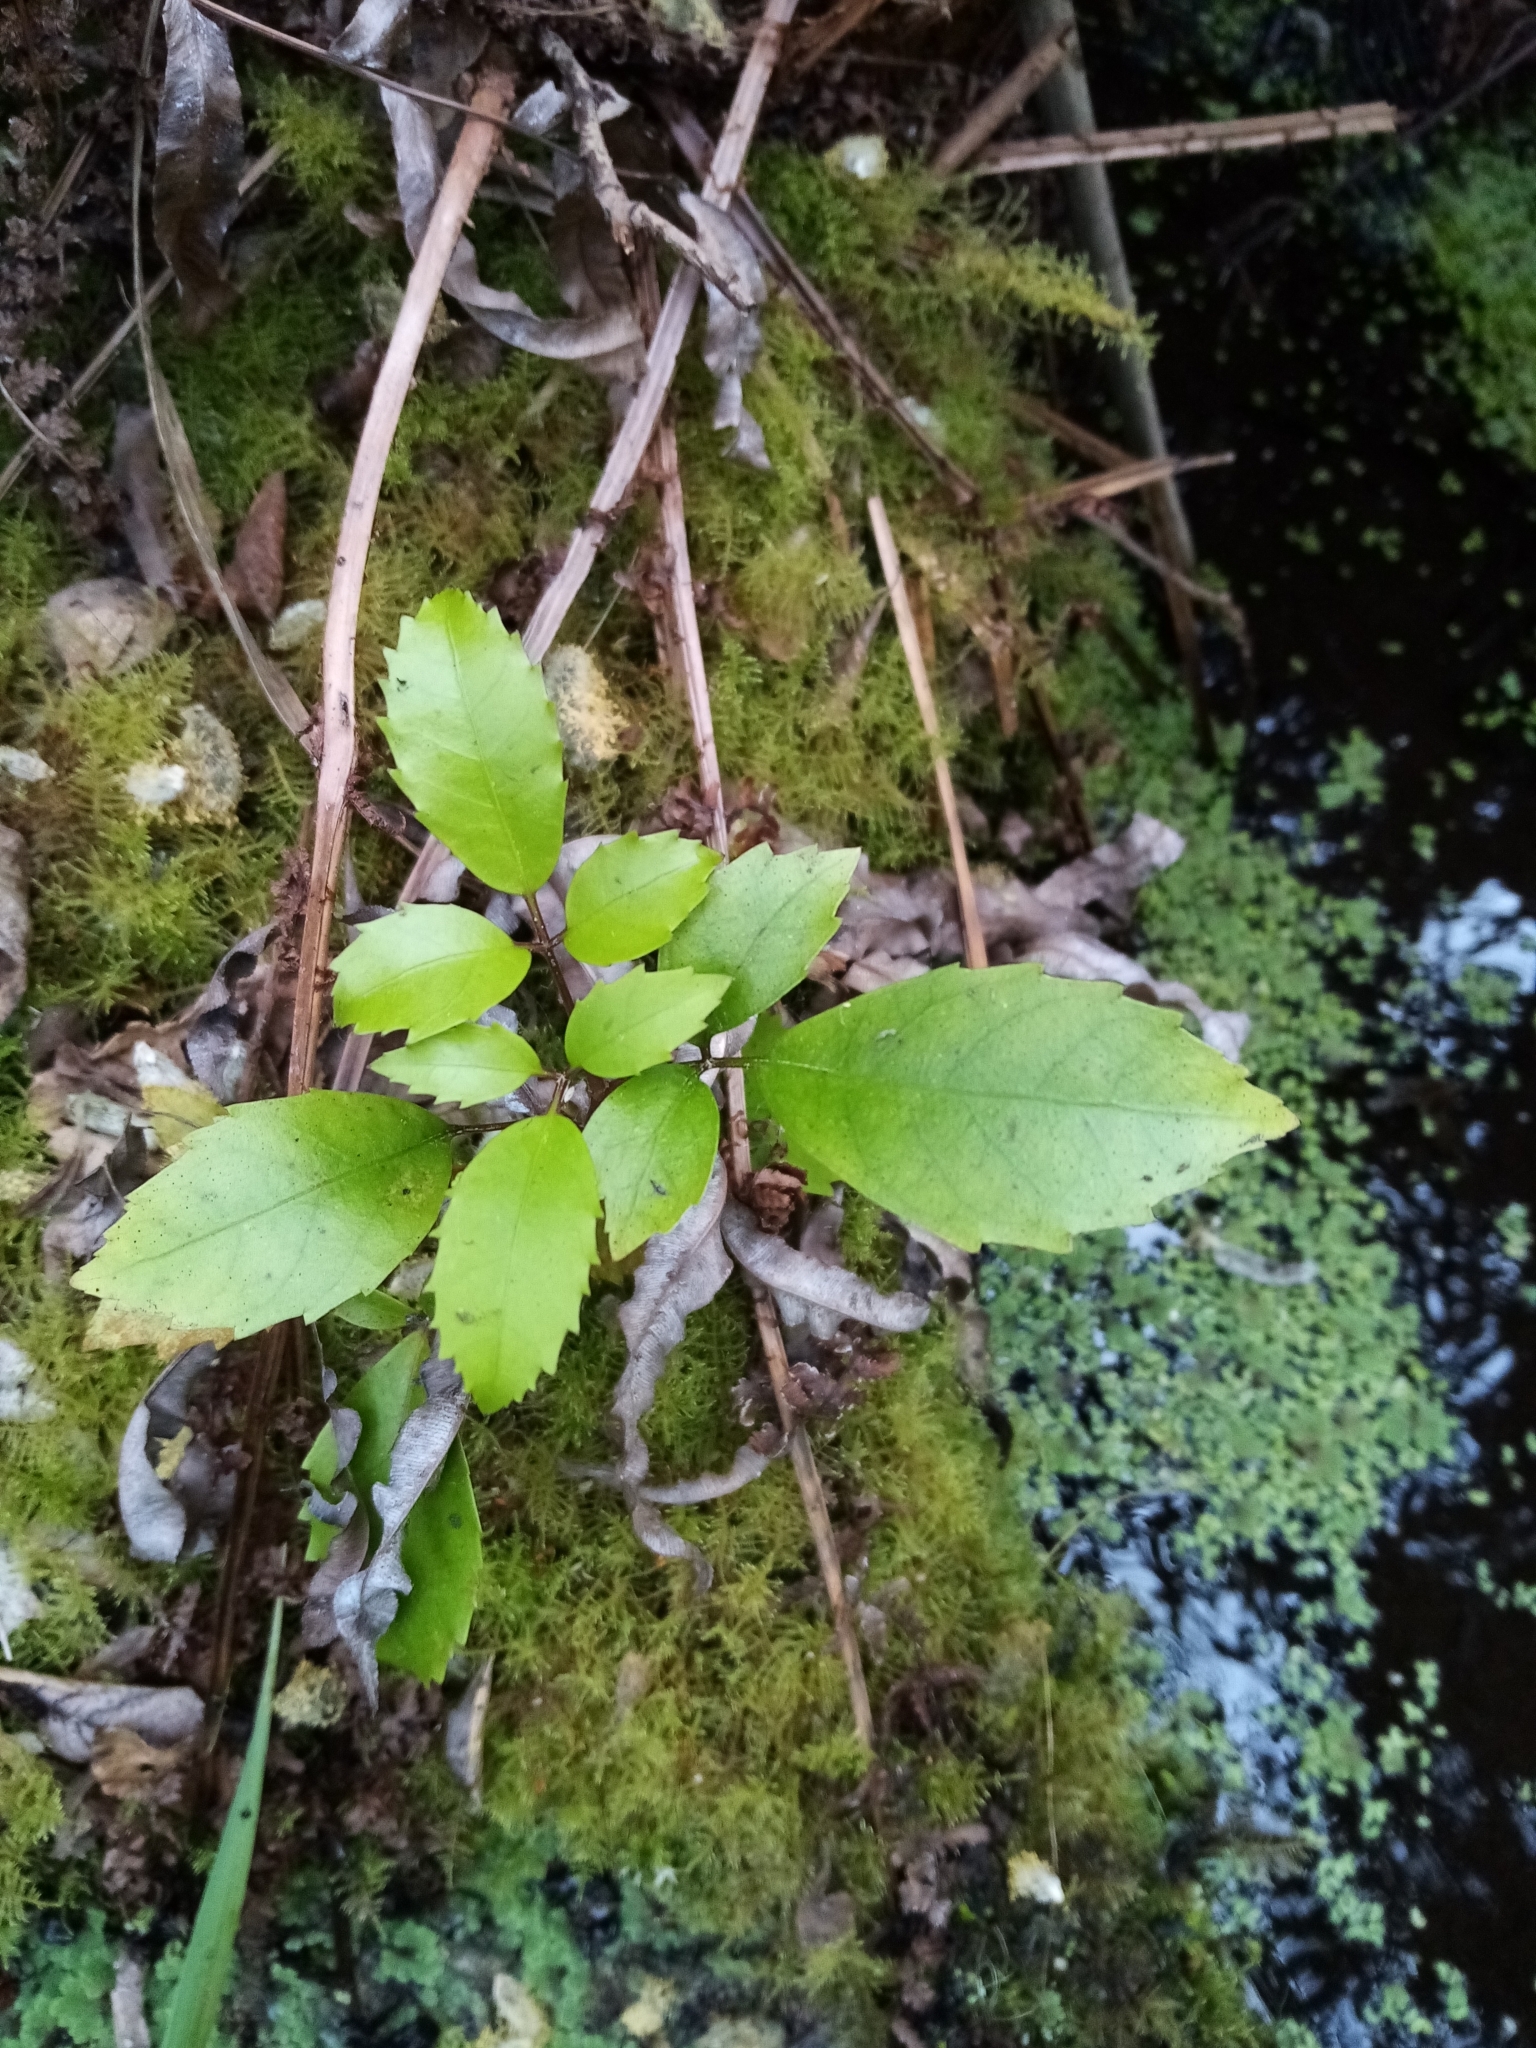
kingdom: Plantae
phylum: Tracheophyta
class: Magnoliopsida
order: Apiales
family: Araliaceae
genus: Neopanax
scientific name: Neopanax arboreus
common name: Five-fingers
